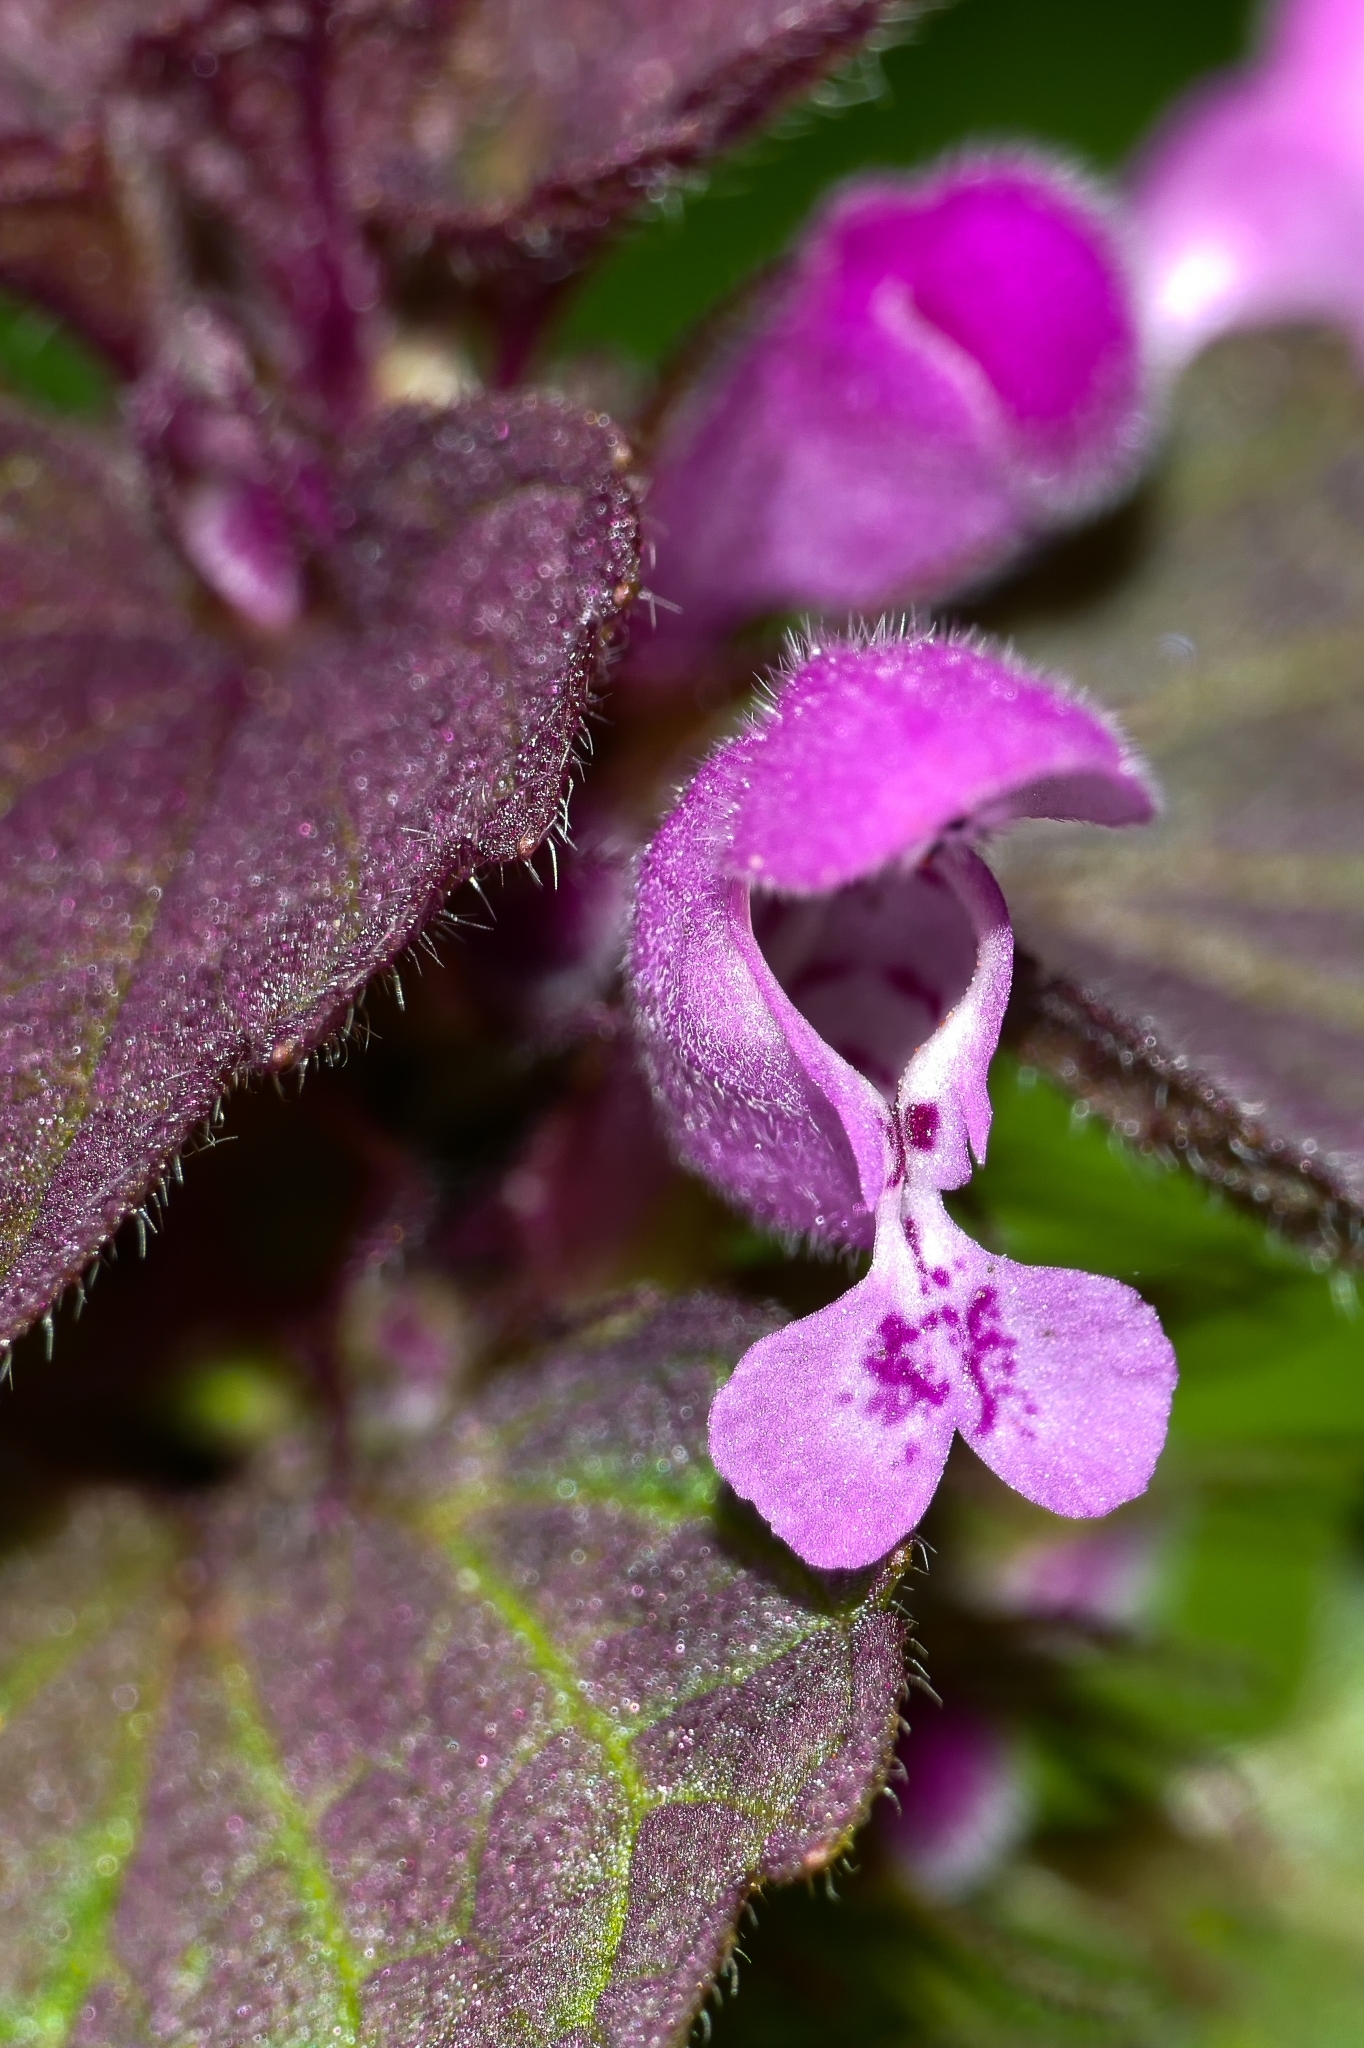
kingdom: Plantae
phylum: Tracheophyta
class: Magnoliopsida
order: Lamiales
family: Lamiaceae
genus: Lamium
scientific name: Lamium purpureum
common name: Red dead-nettle
